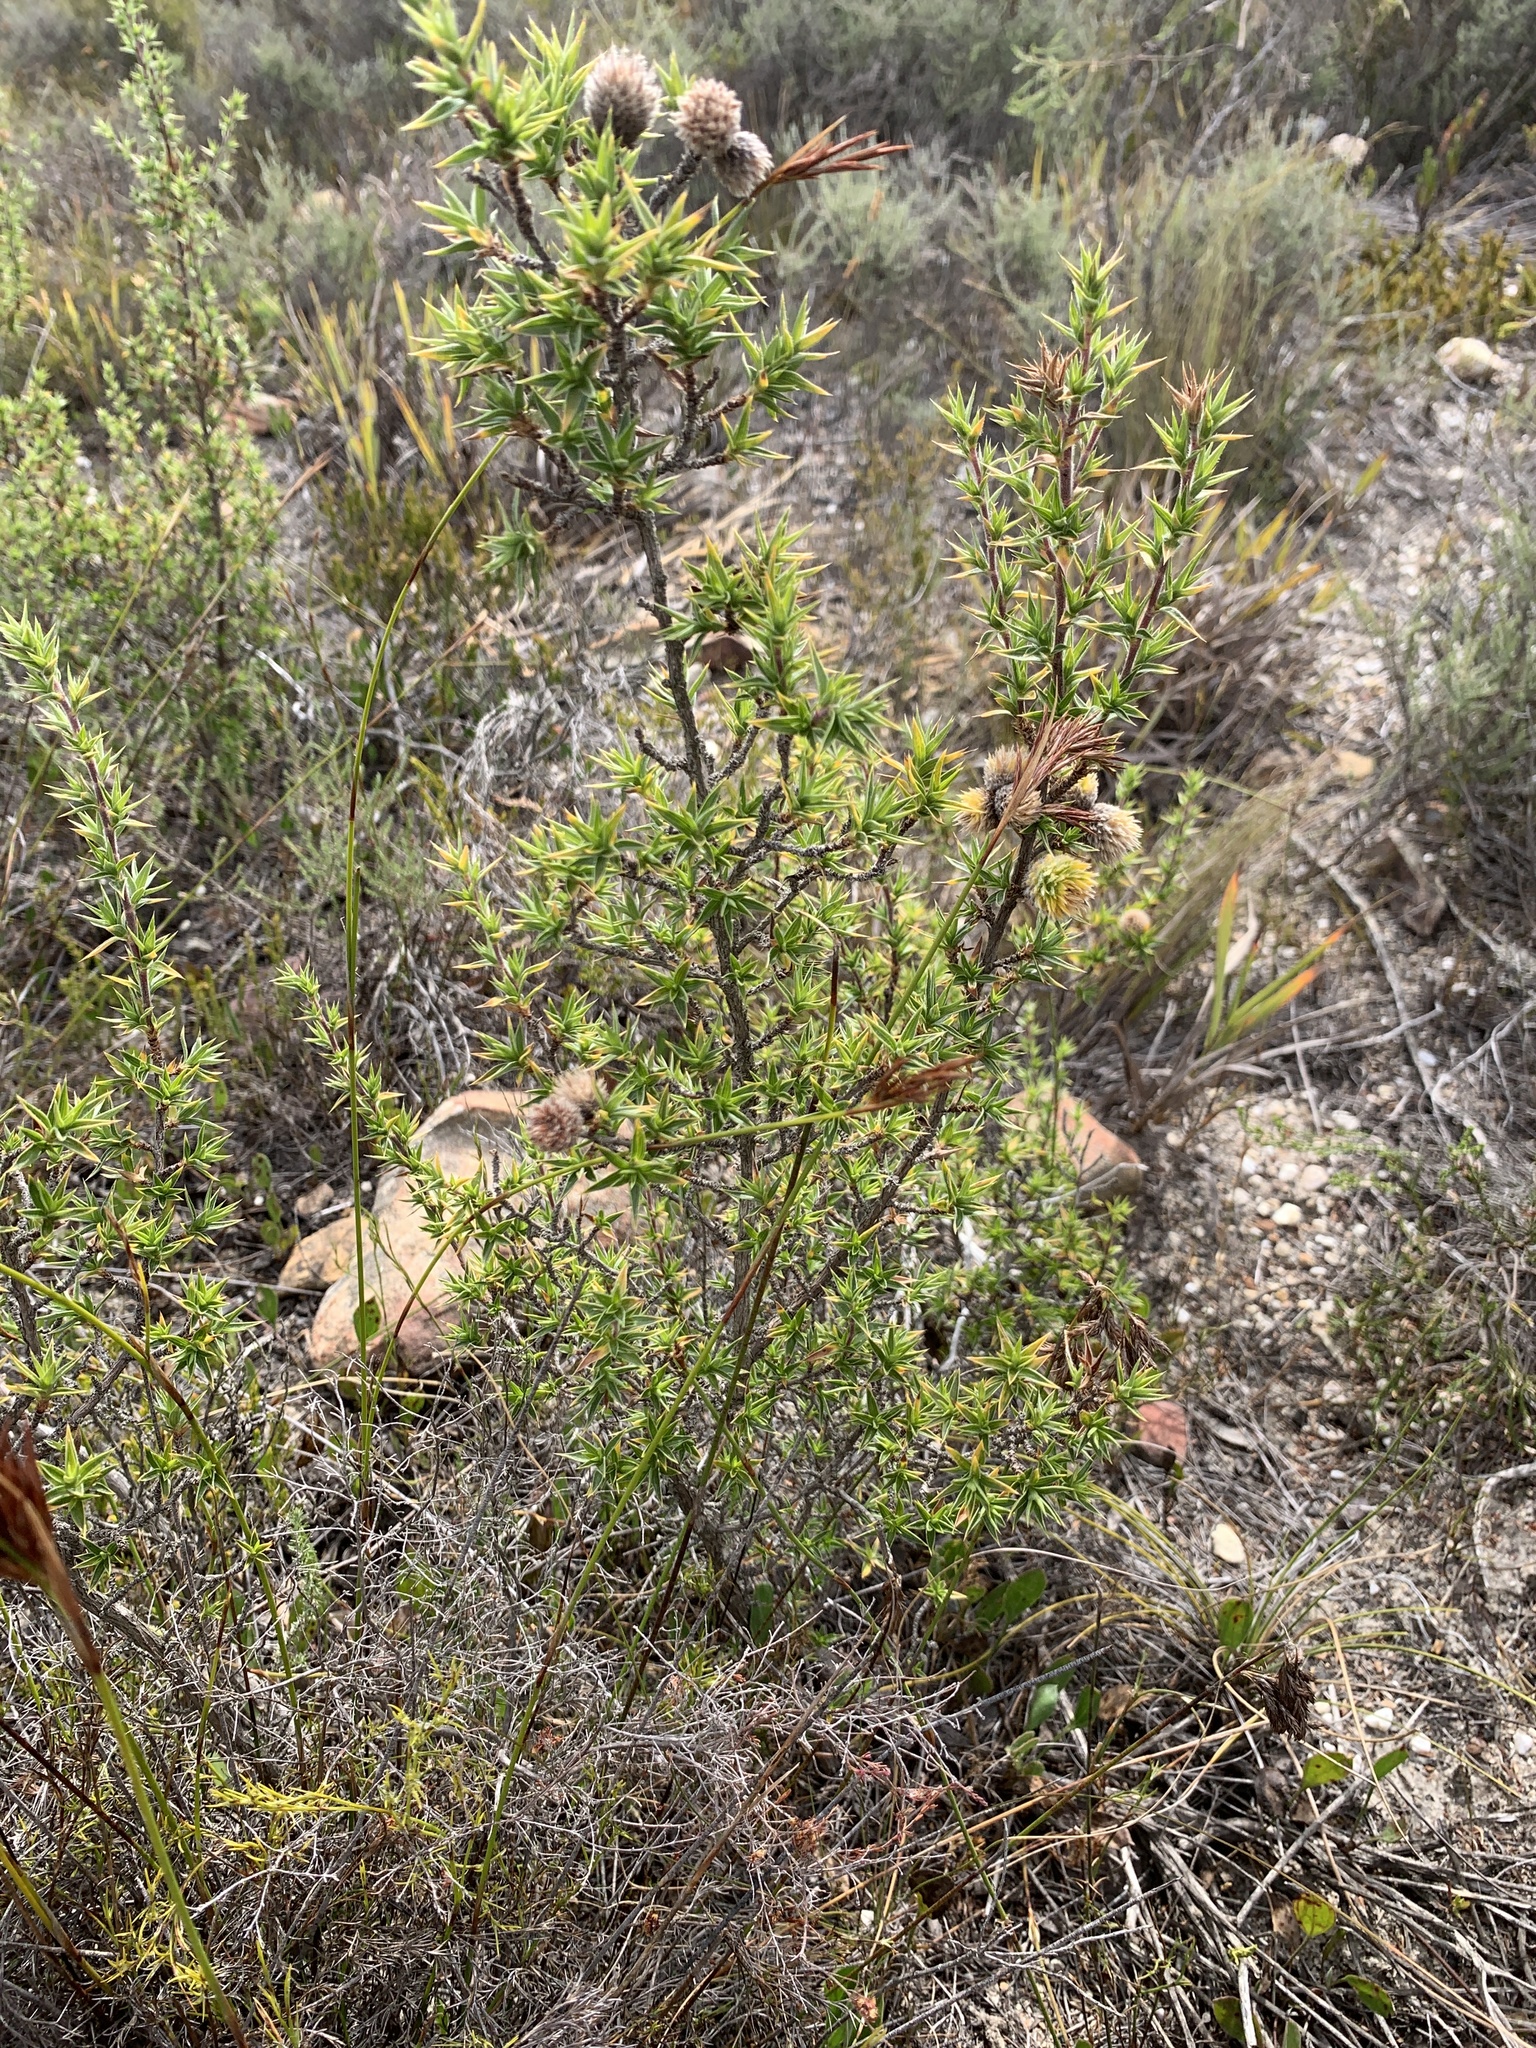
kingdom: Plantae
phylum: Tracheophyta
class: Magnoliopsida
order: Rosales
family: Rosaceae
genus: Cliffortia
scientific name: Cliffortia ruscifolia
